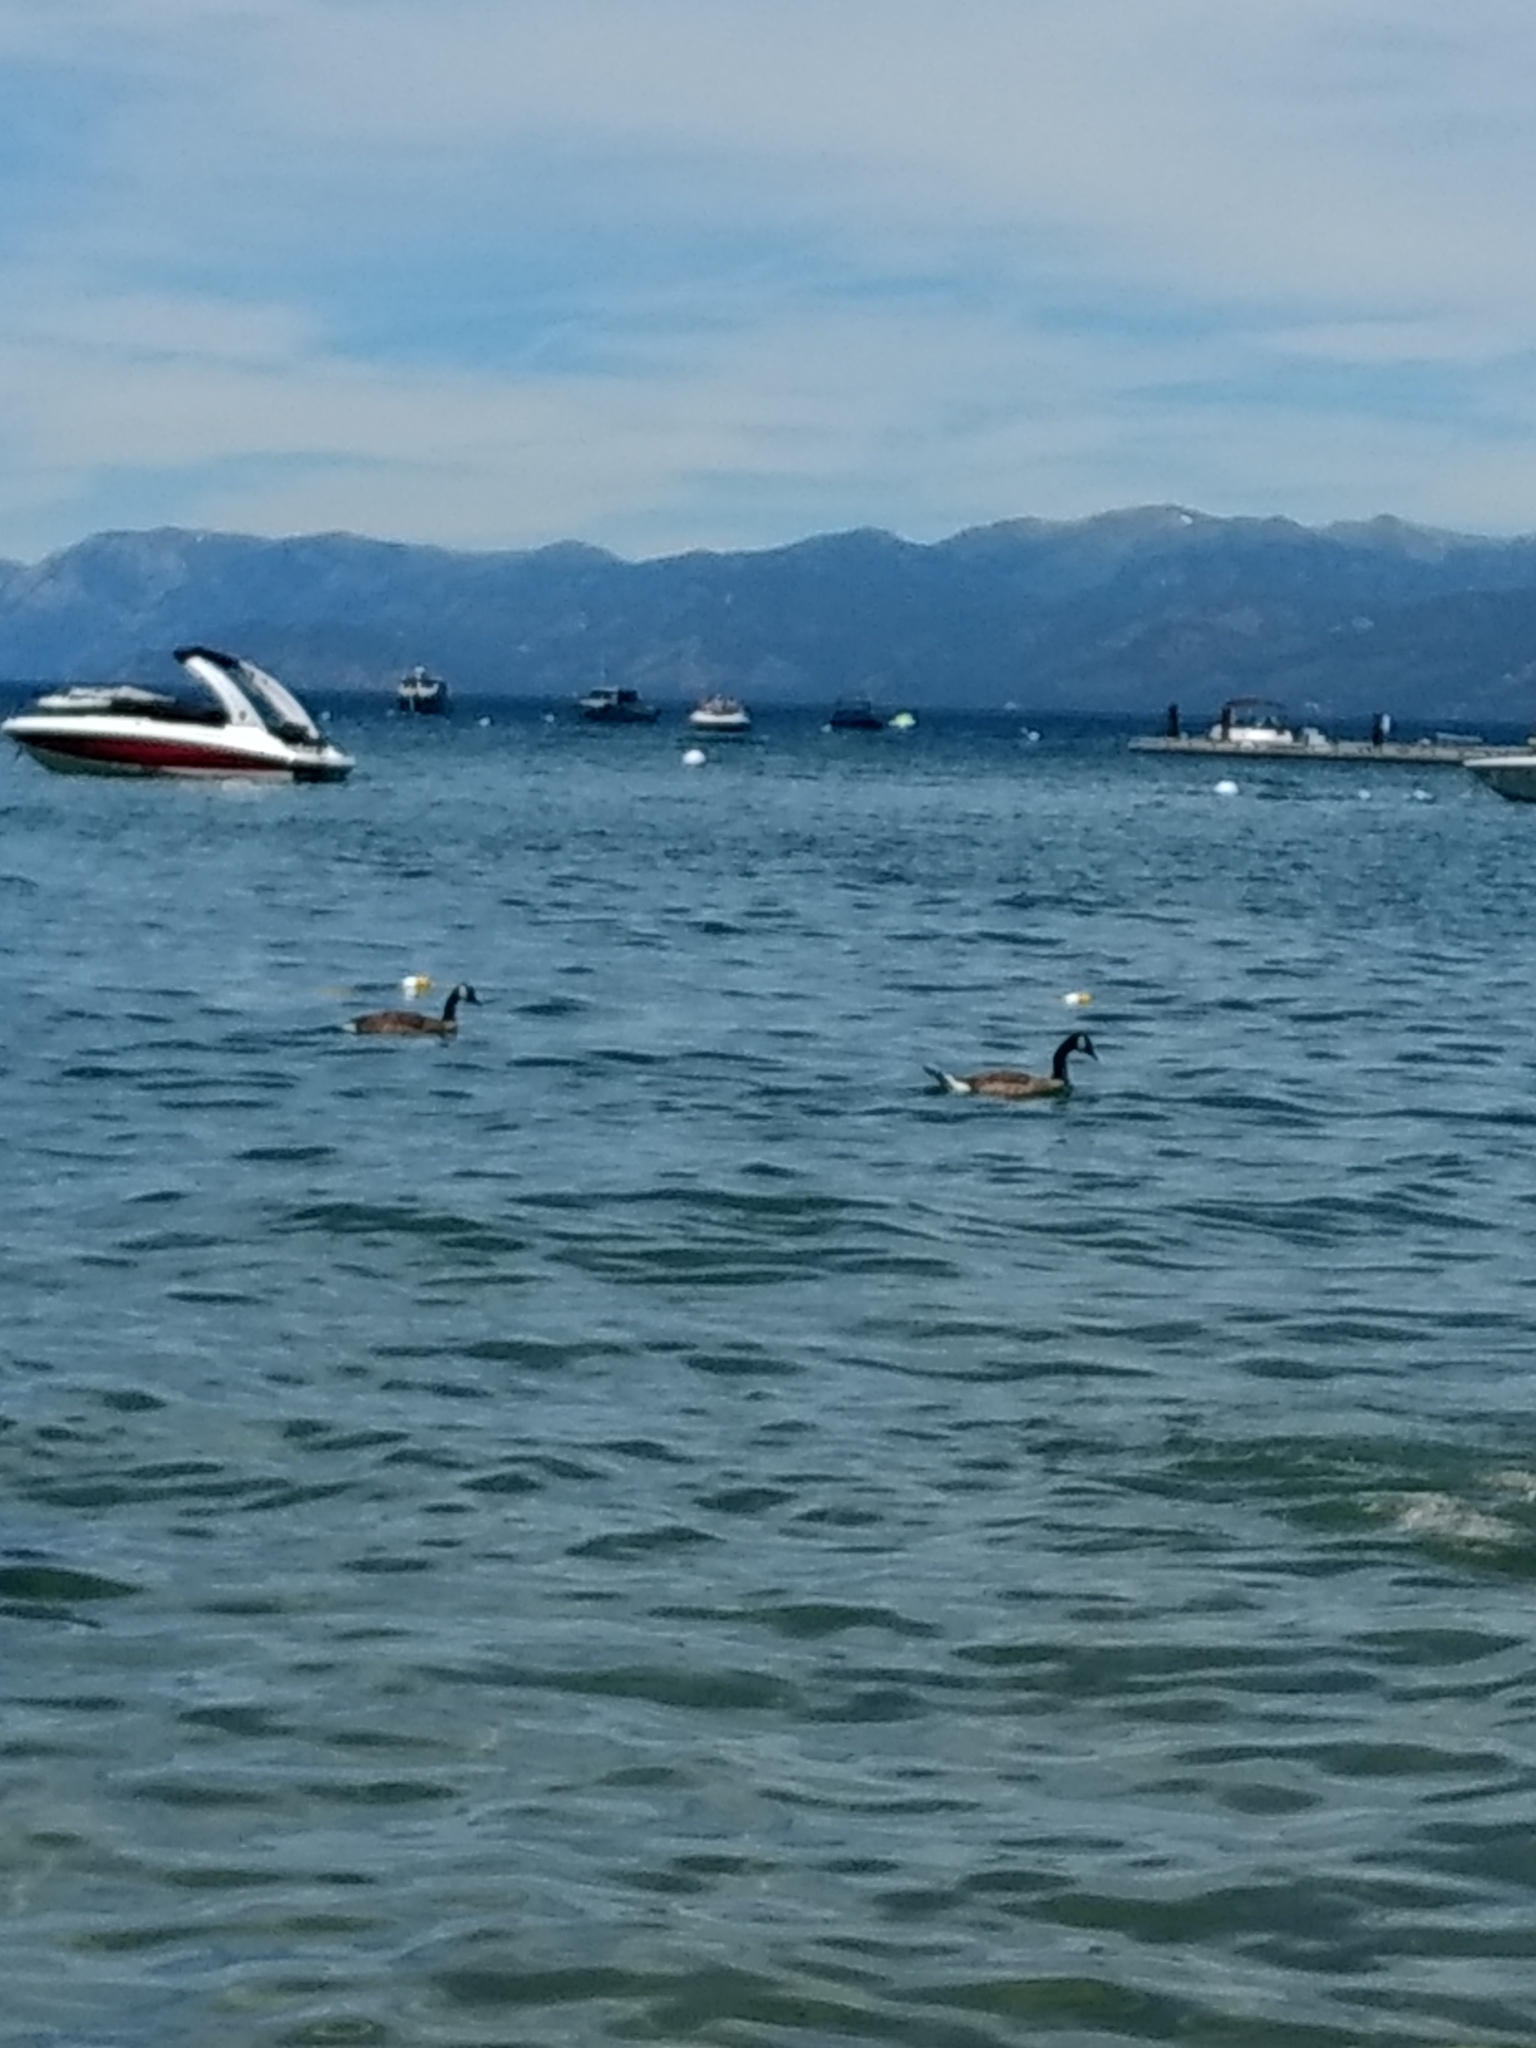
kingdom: Animalia
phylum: Chordata
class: Aves
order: Anseriformes
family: Anatidae
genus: Branta
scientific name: Branta canadensis
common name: Canada goose
